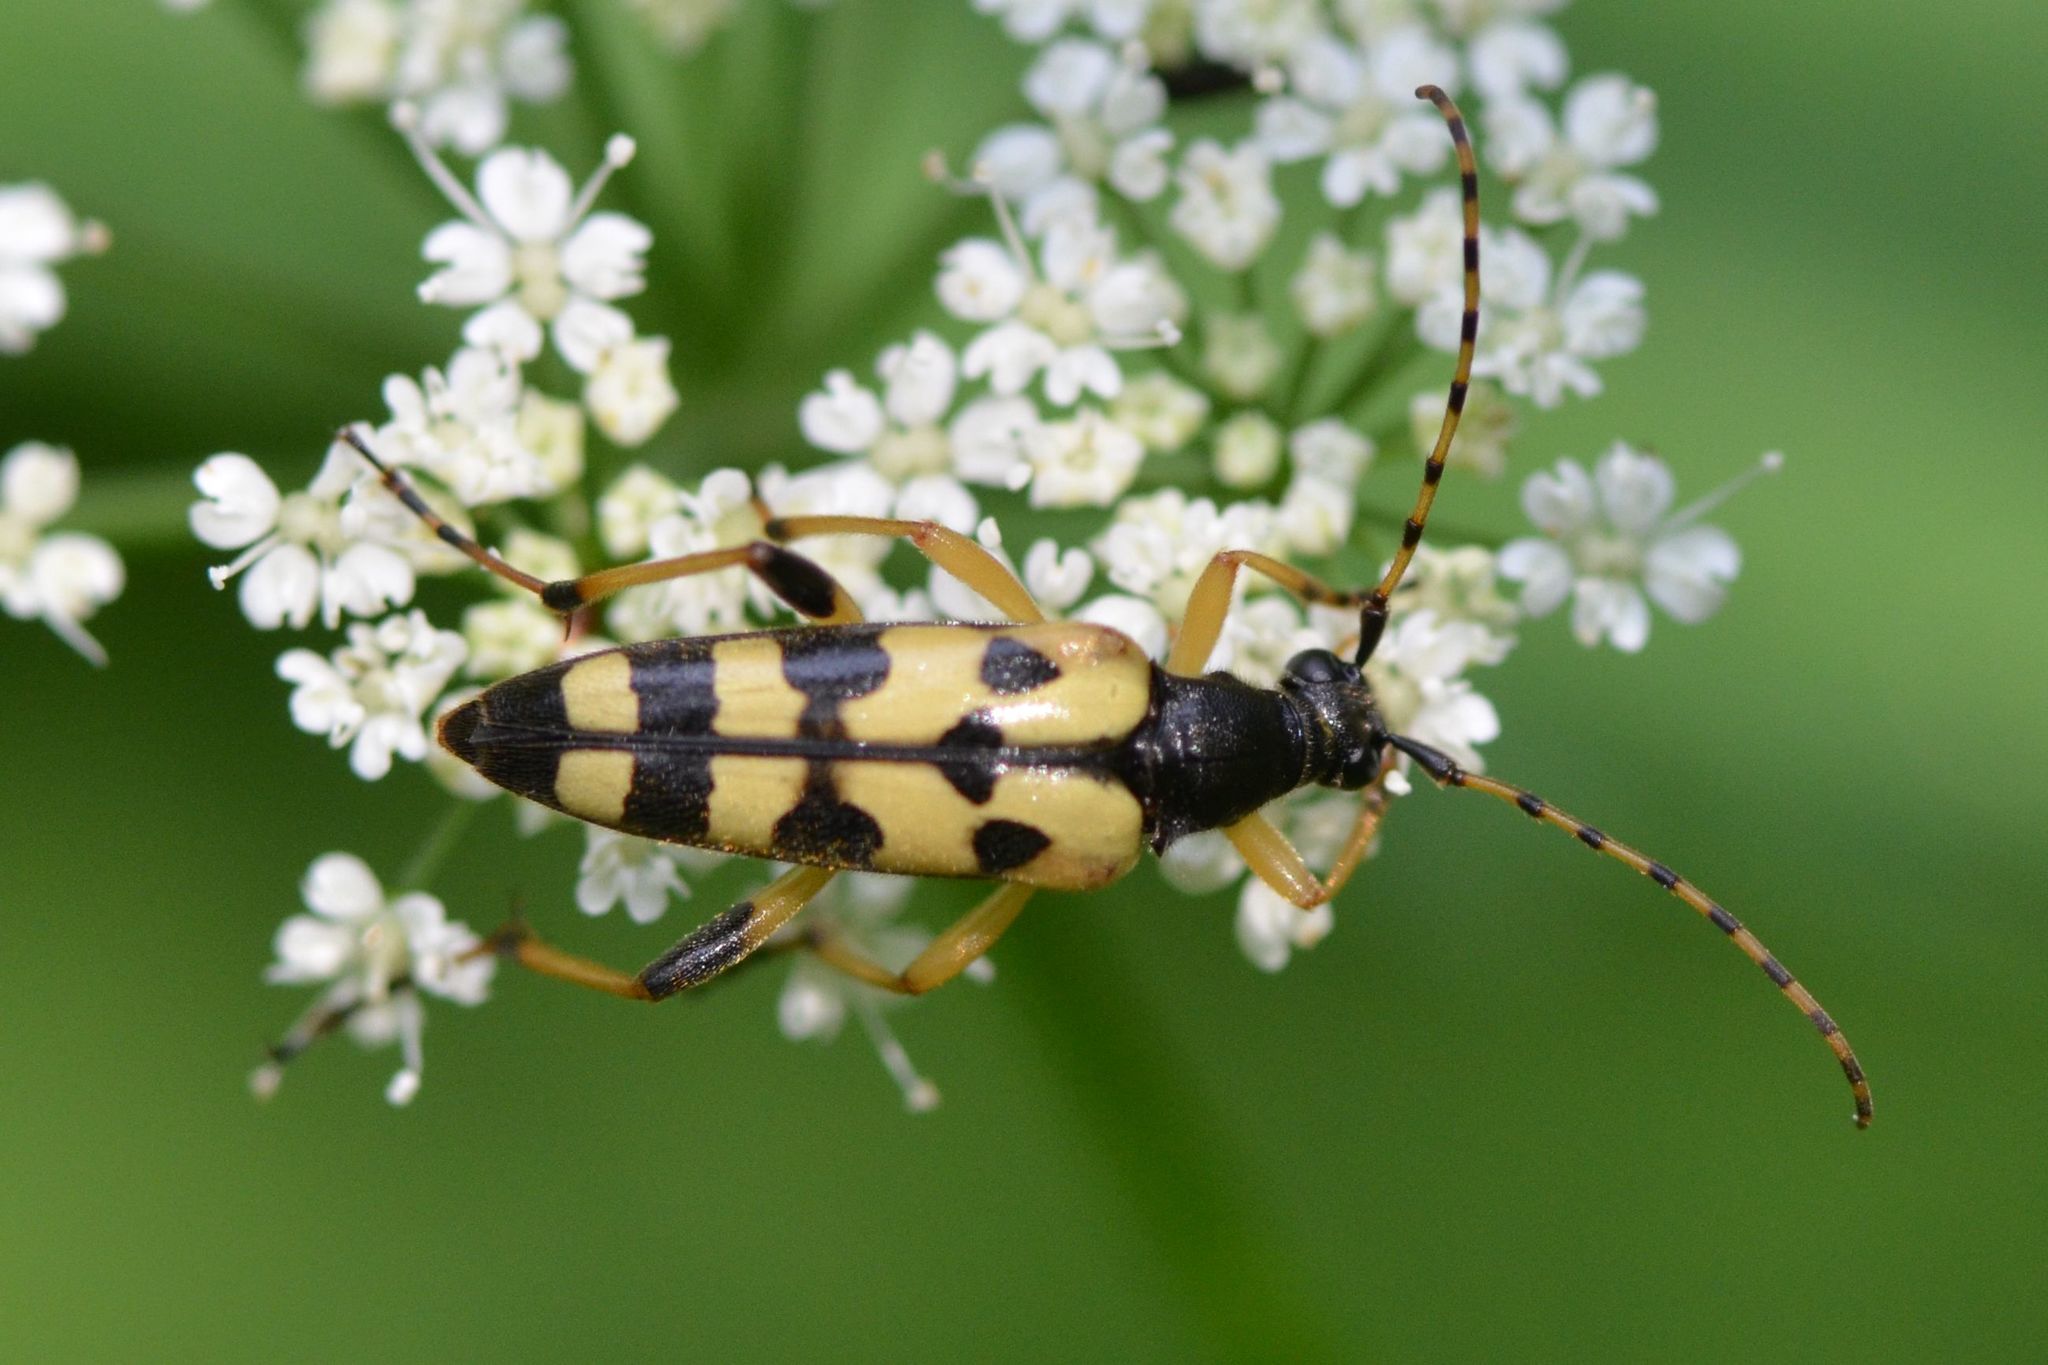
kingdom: Animalia
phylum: Arthropoda
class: Insecta
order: Coleoptera
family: Cerambycidae
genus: Rutpela
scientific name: Rutpela maculata
